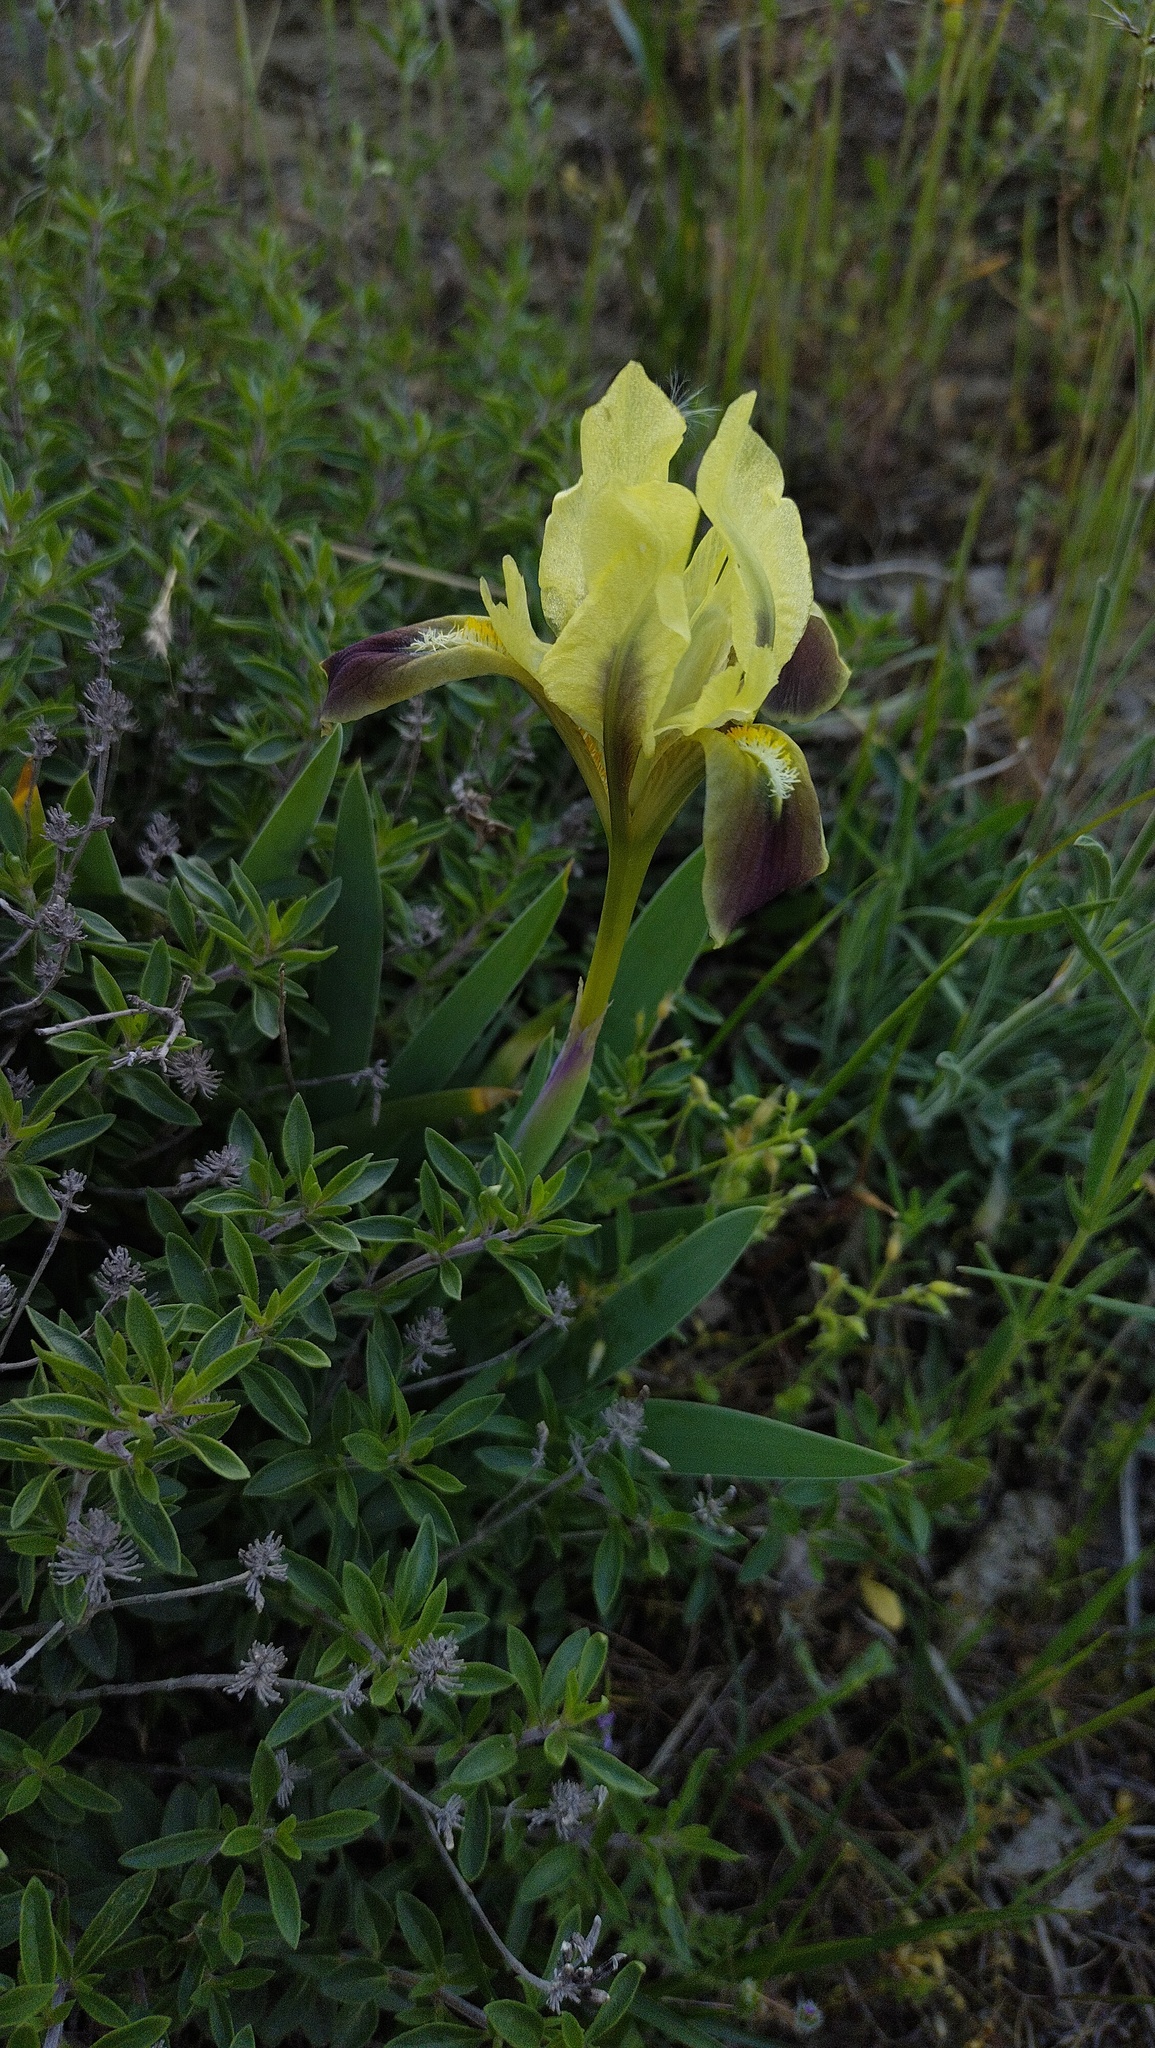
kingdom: Plantae
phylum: Tracheophyta
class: Liliopsida
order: Asparagales
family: Iridaceae
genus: Iris
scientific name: Iris pumila
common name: Dwarf iris
